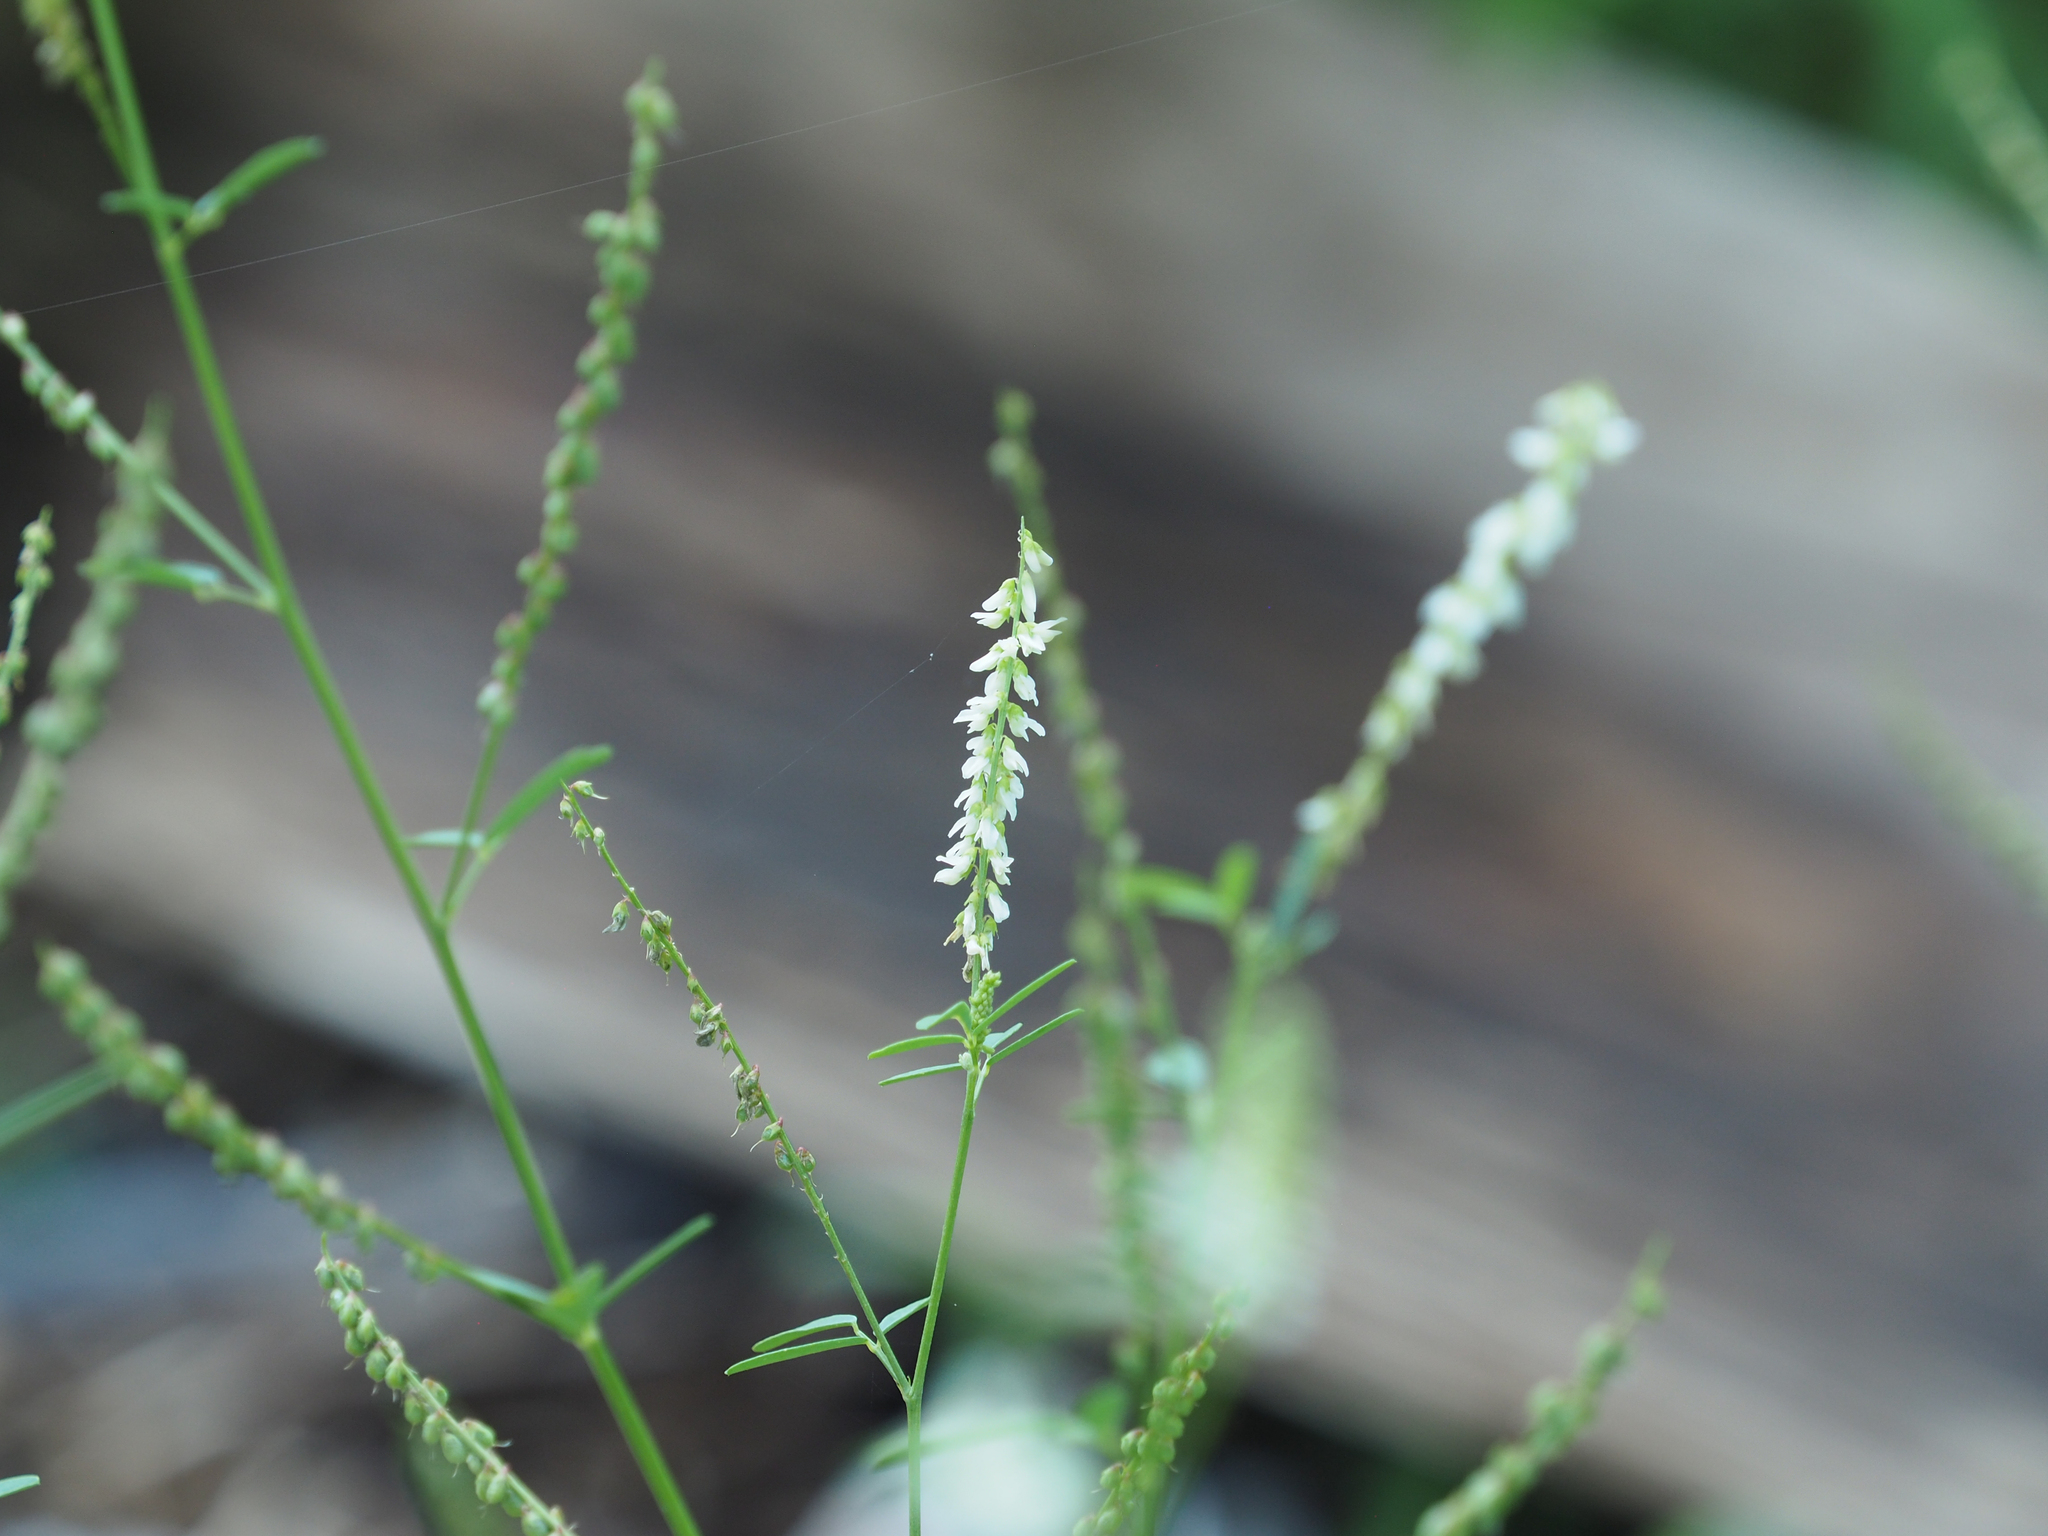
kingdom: Plantae
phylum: Tracheophyta
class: Magnoliopsida
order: Fabales
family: Fabaceae
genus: Melilotus
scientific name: Melilotus albus
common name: White melilot
